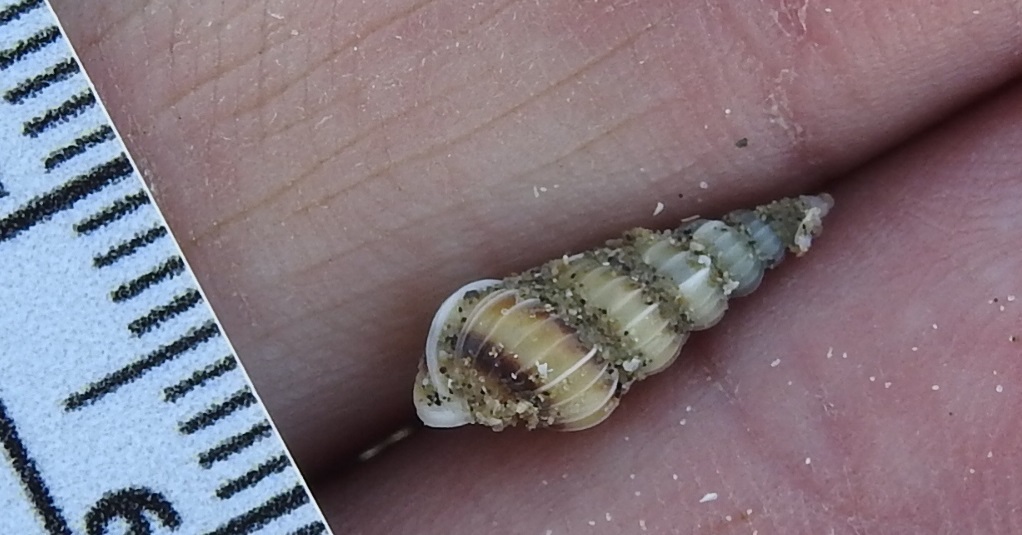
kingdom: Animalia
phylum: Mollusca
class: Gastropoda
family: Epitoniidae
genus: Gyroscala
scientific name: Gyroscala rupicola
